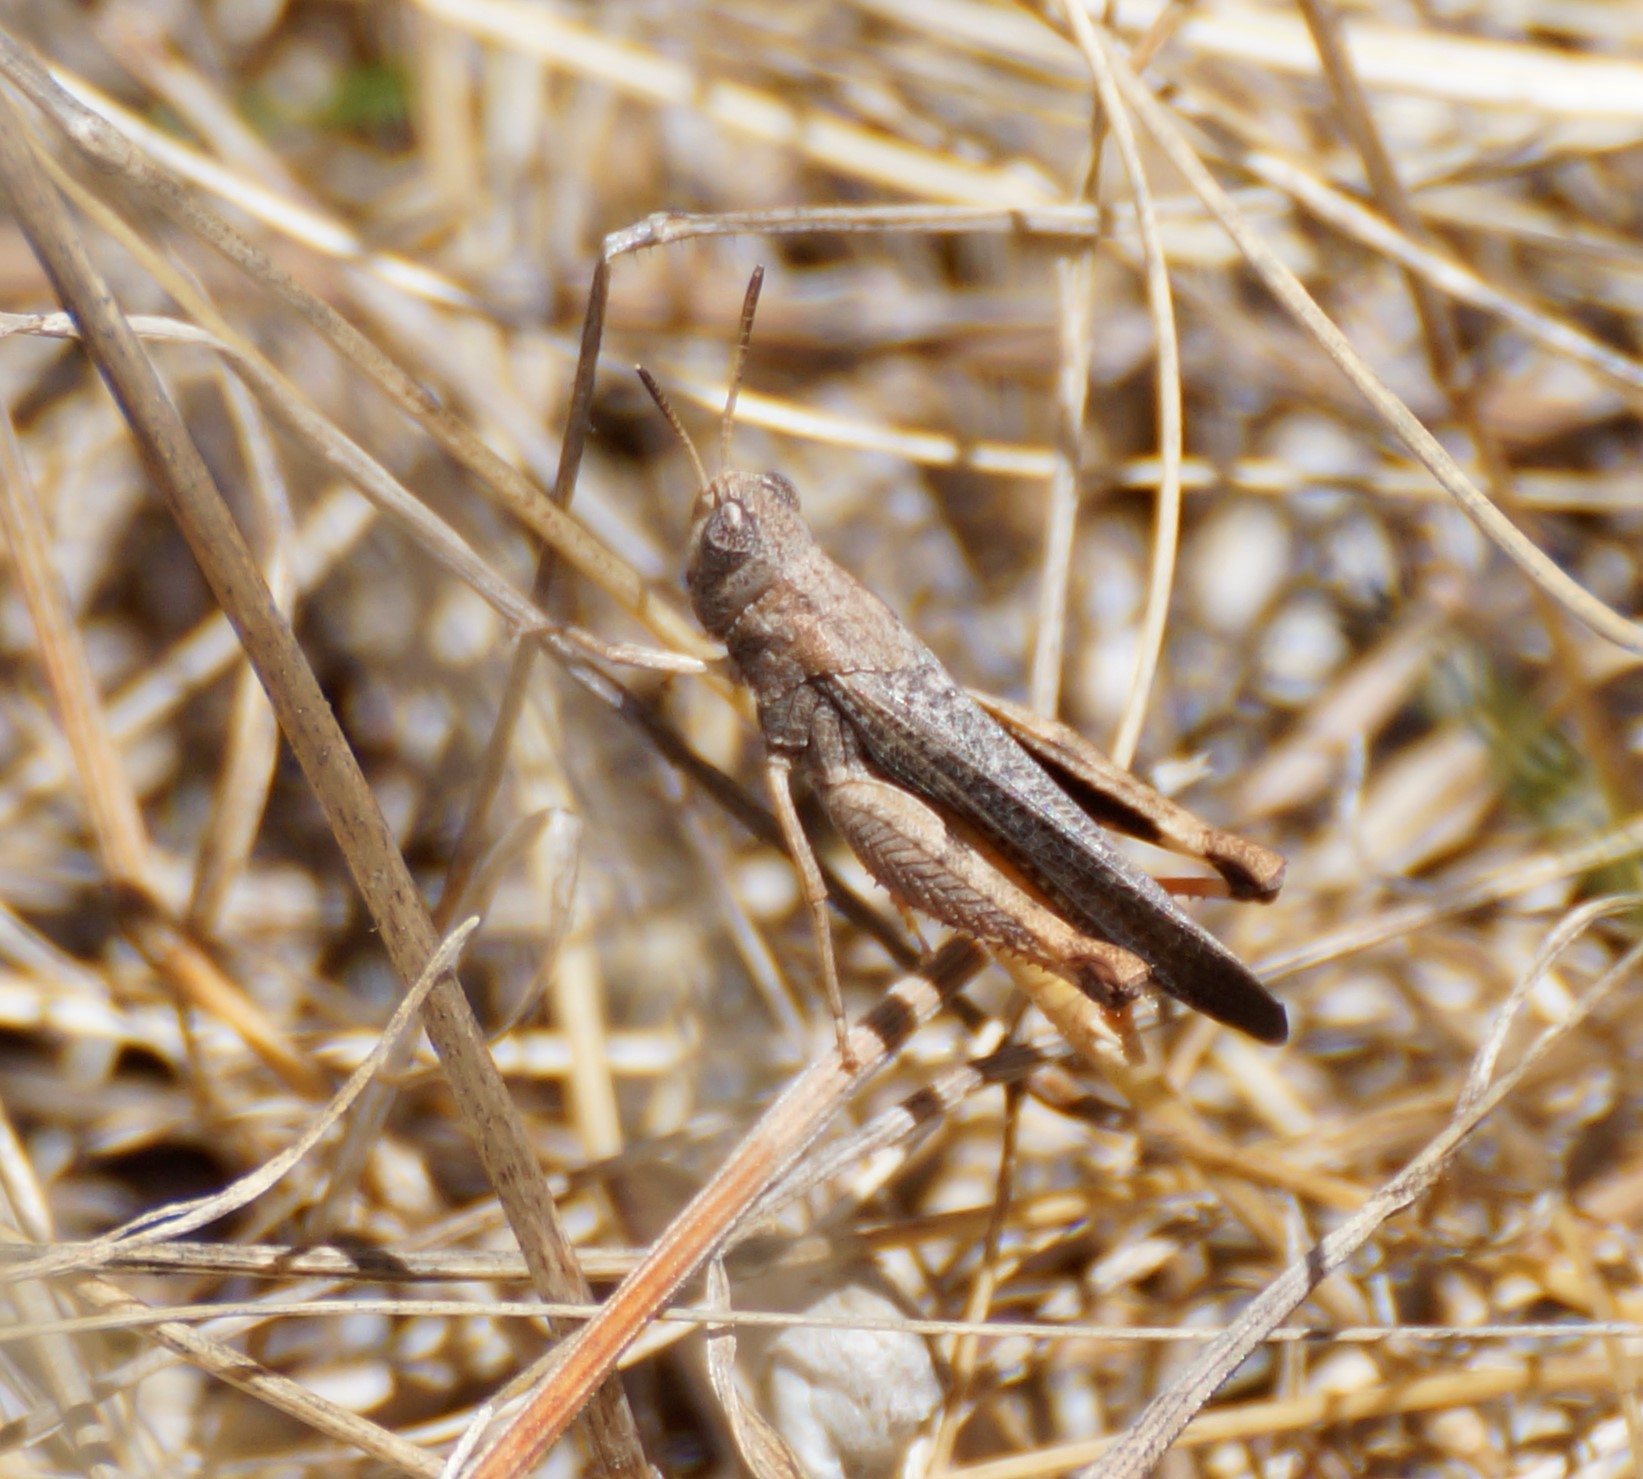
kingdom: Animalia
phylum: Arthropoda
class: Insecta
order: Orthoptera
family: Acrididae
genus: Cryptobothrus
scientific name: Cryptobothrus chrysophorus
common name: Golden bandwing
